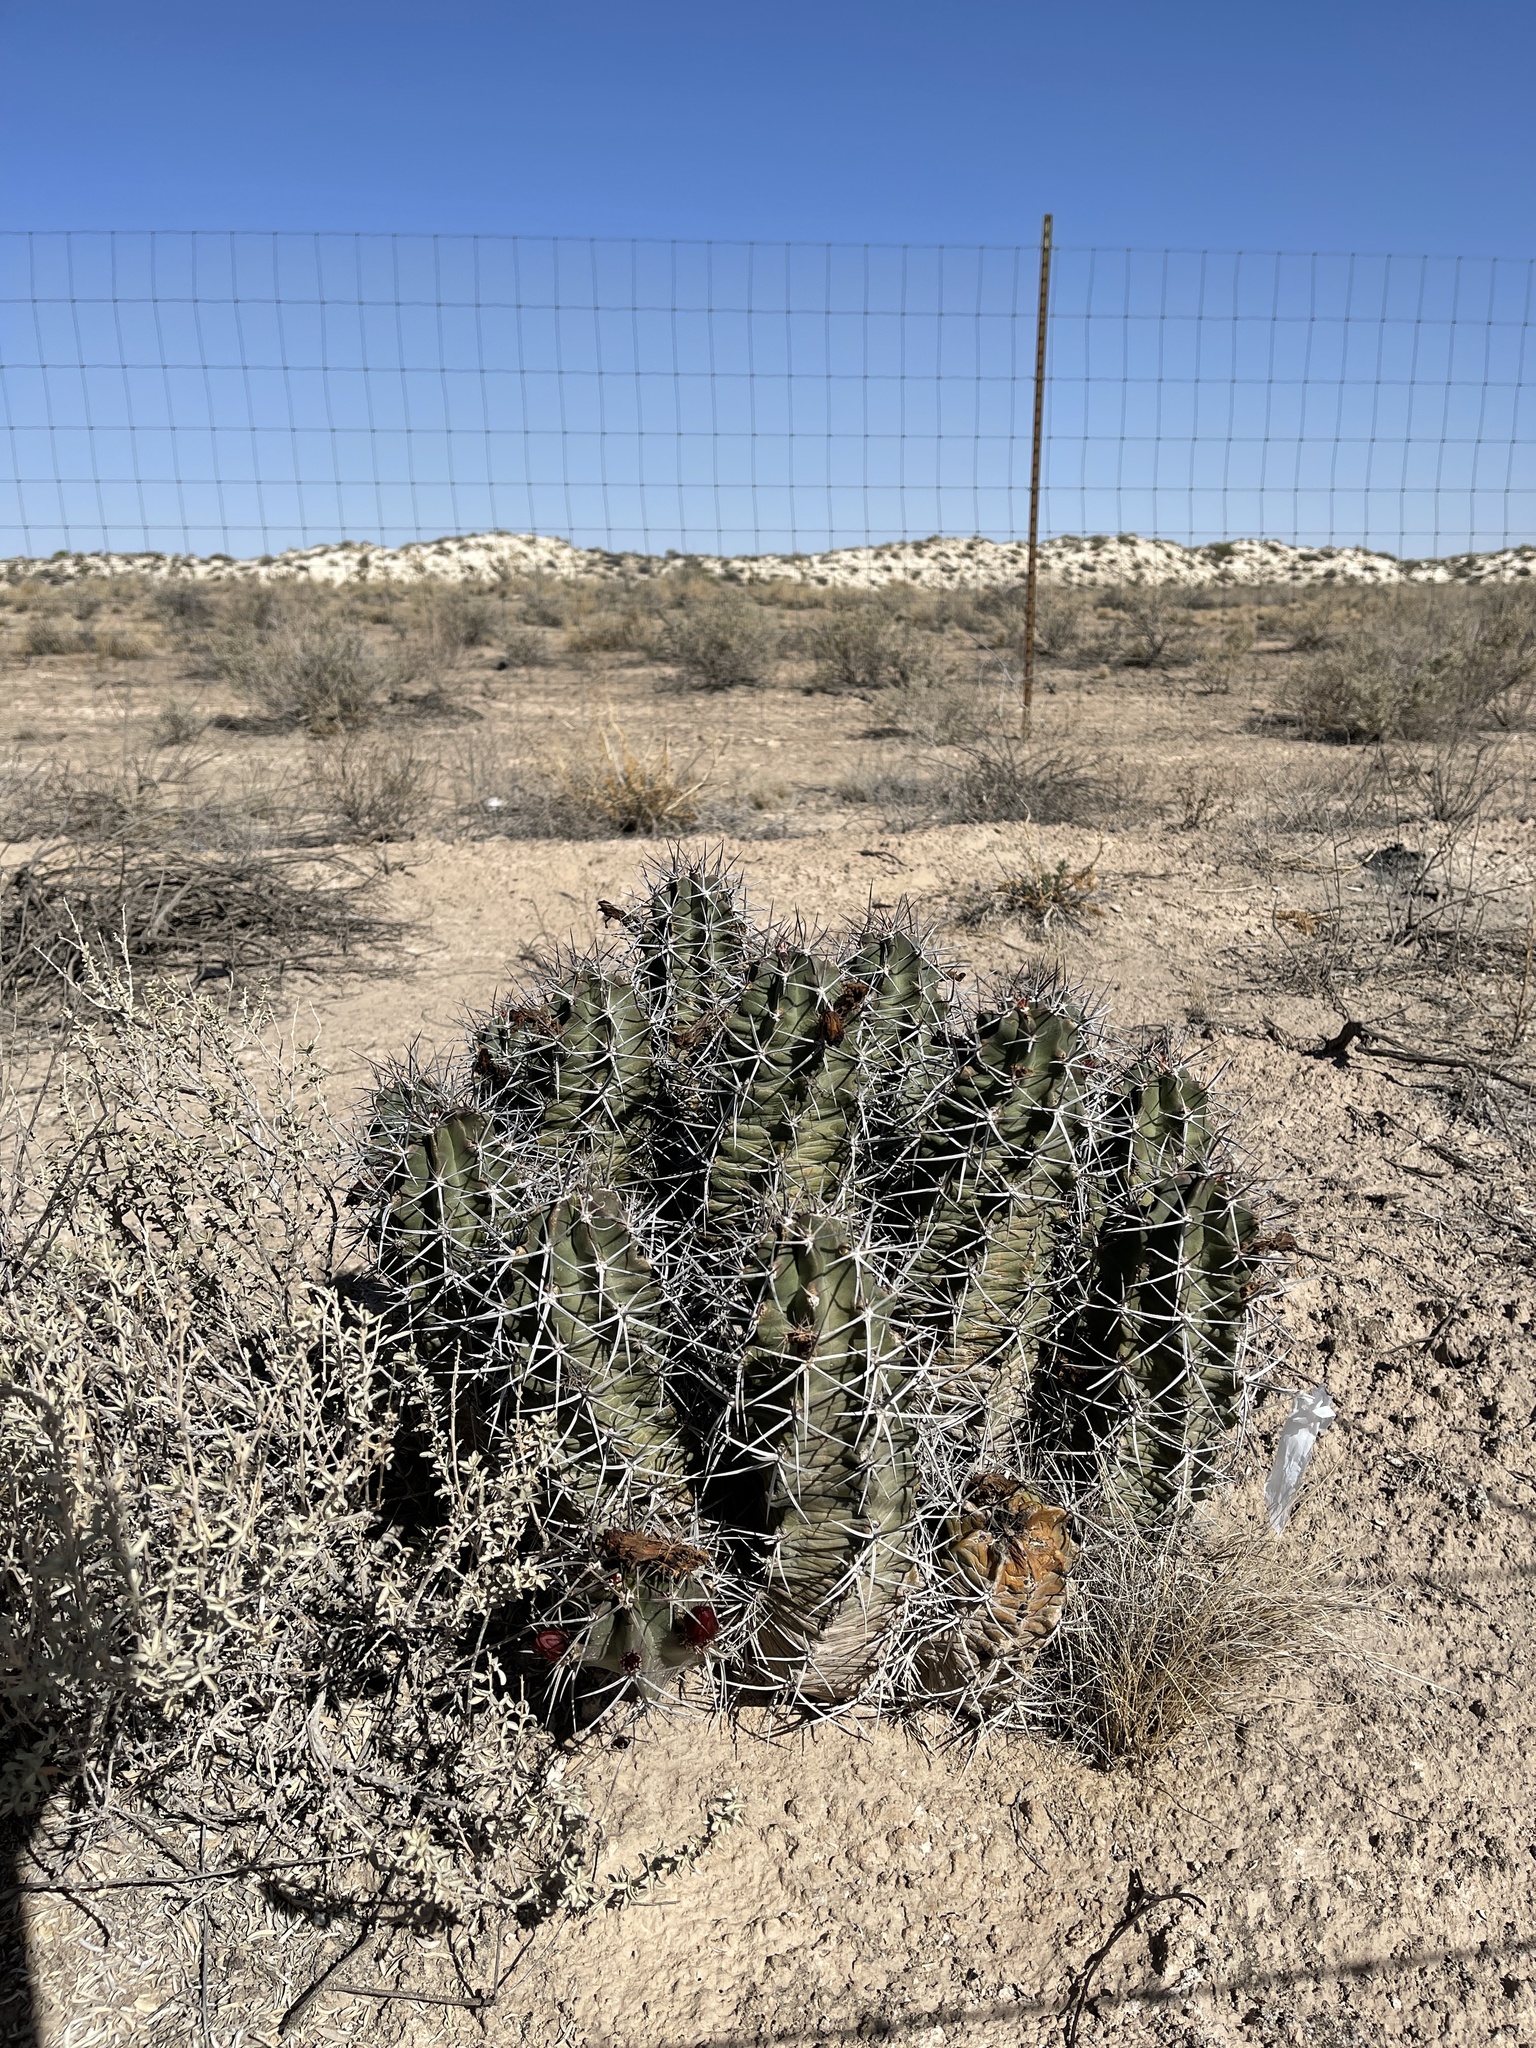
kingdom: Plantae
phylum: Tracheophyta
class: Magnoliopsida
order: Caryophyllales
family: Cactaceae
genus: Echinocereus
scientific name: Echinocereus triglochidiatus
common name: Claretcup hedgehog
